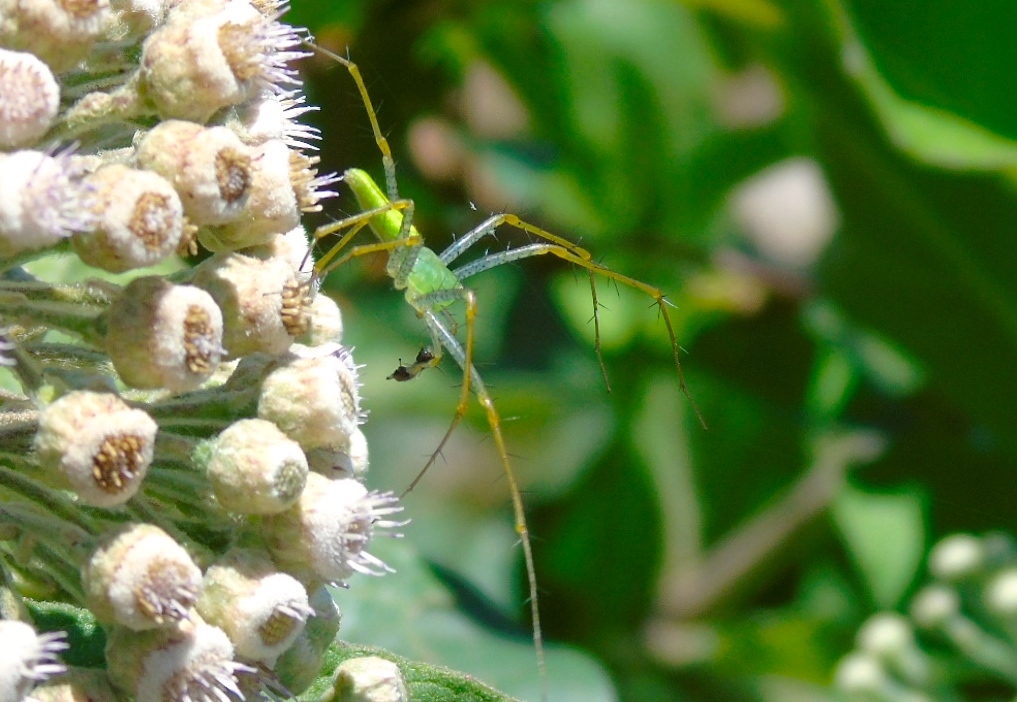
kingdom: Animalia
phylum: Arthropoda
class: Arachnida
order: Araneae
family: Oxyopidae
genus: Peucetia
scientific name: Peucetia
